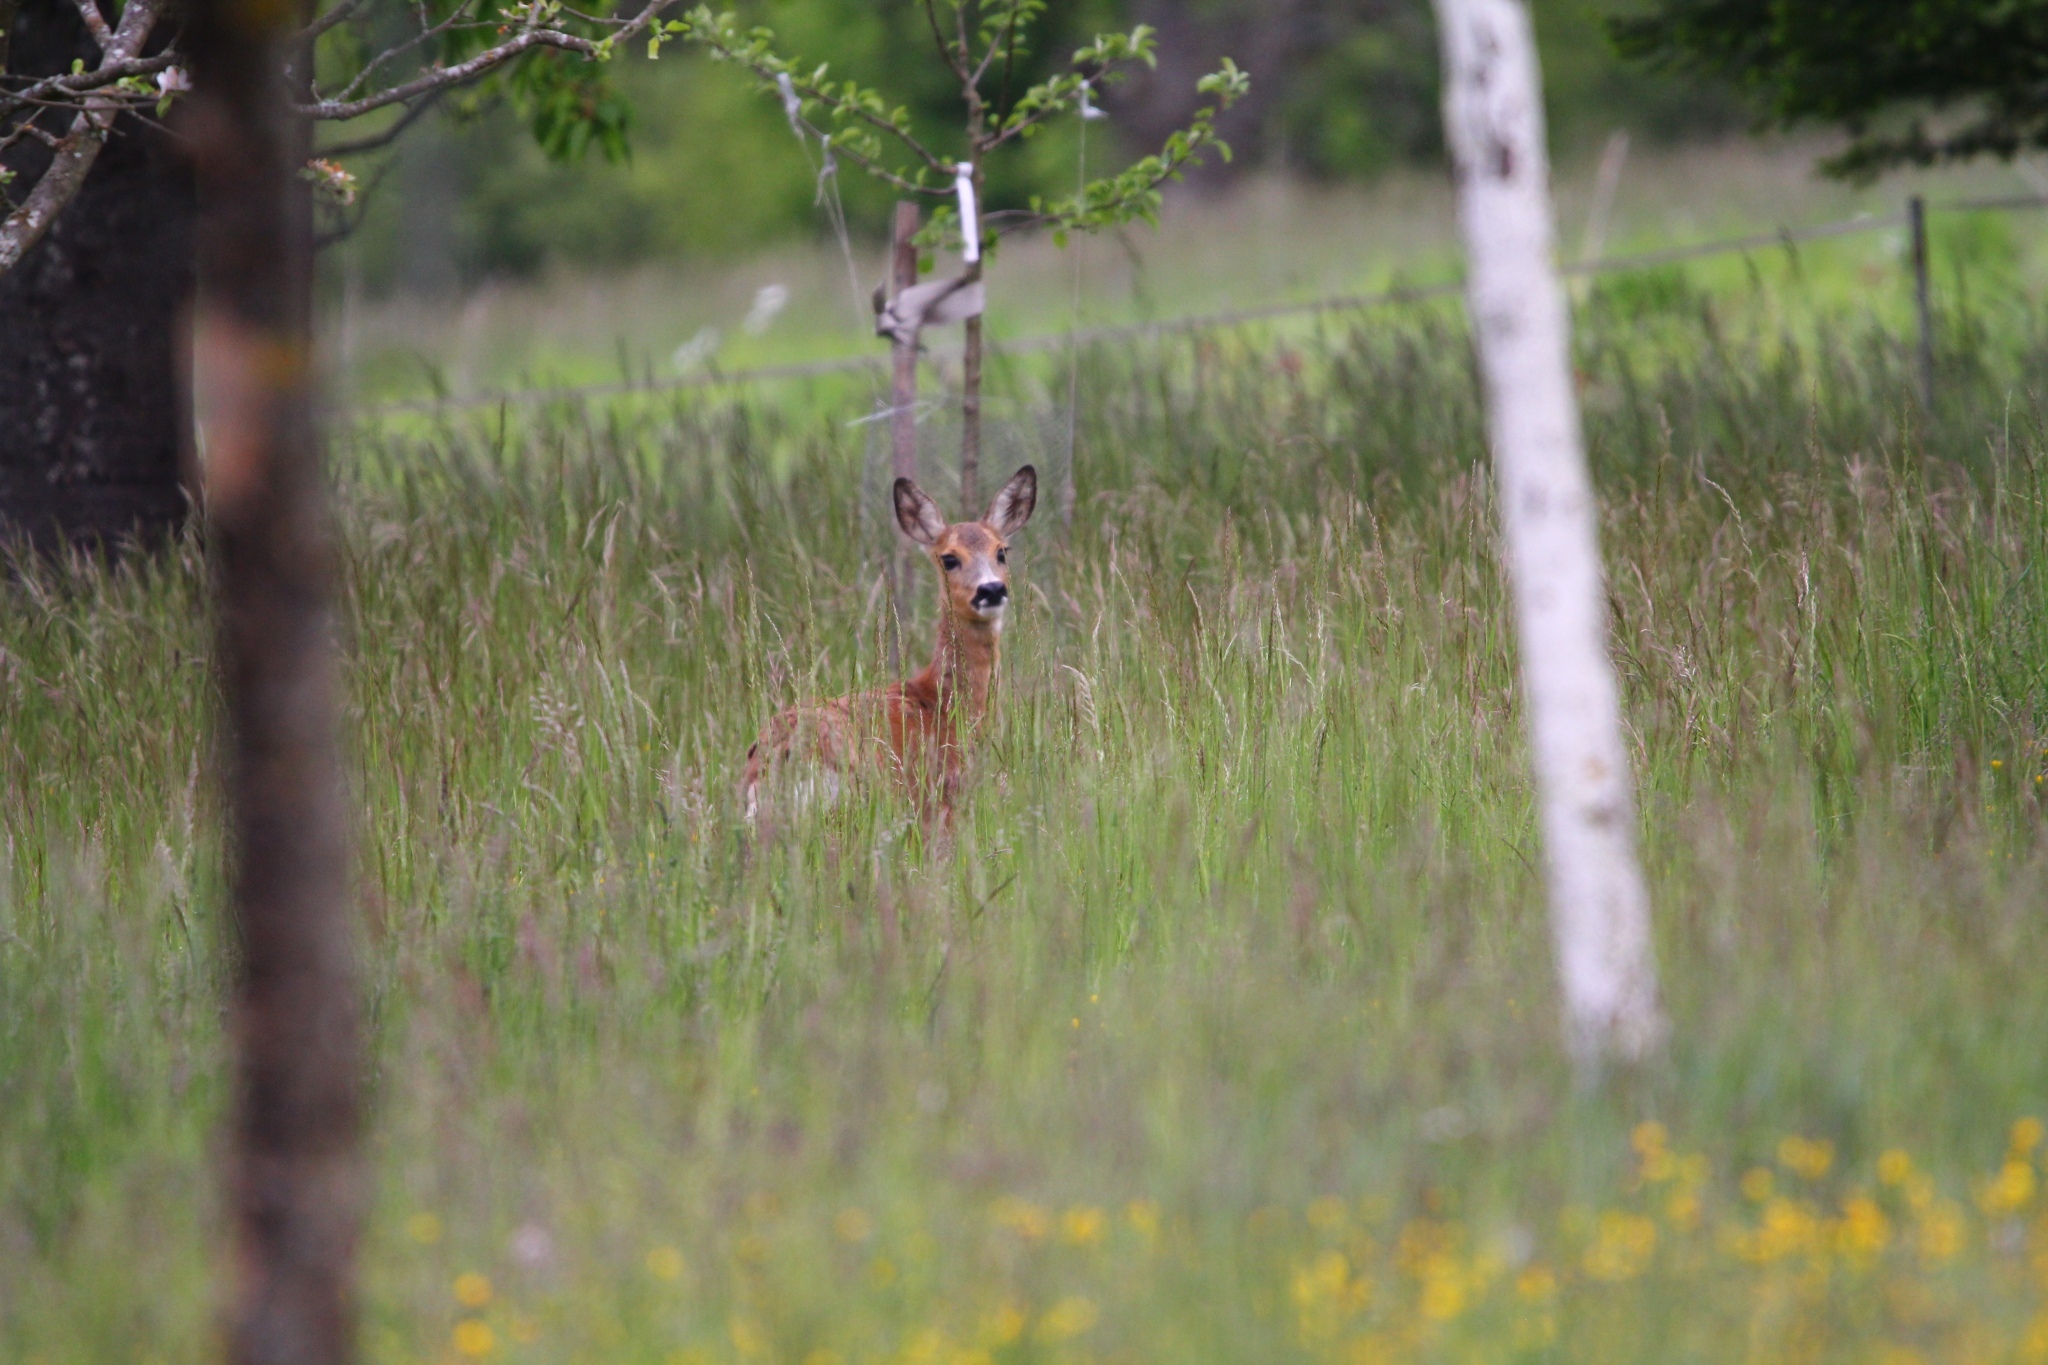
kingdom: Animalia
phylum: Chordata
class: Mammalia
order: Artiodactyla
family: Cervidae
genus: Capreolus
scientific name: Capreolus capreolus
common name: Western roe deer
